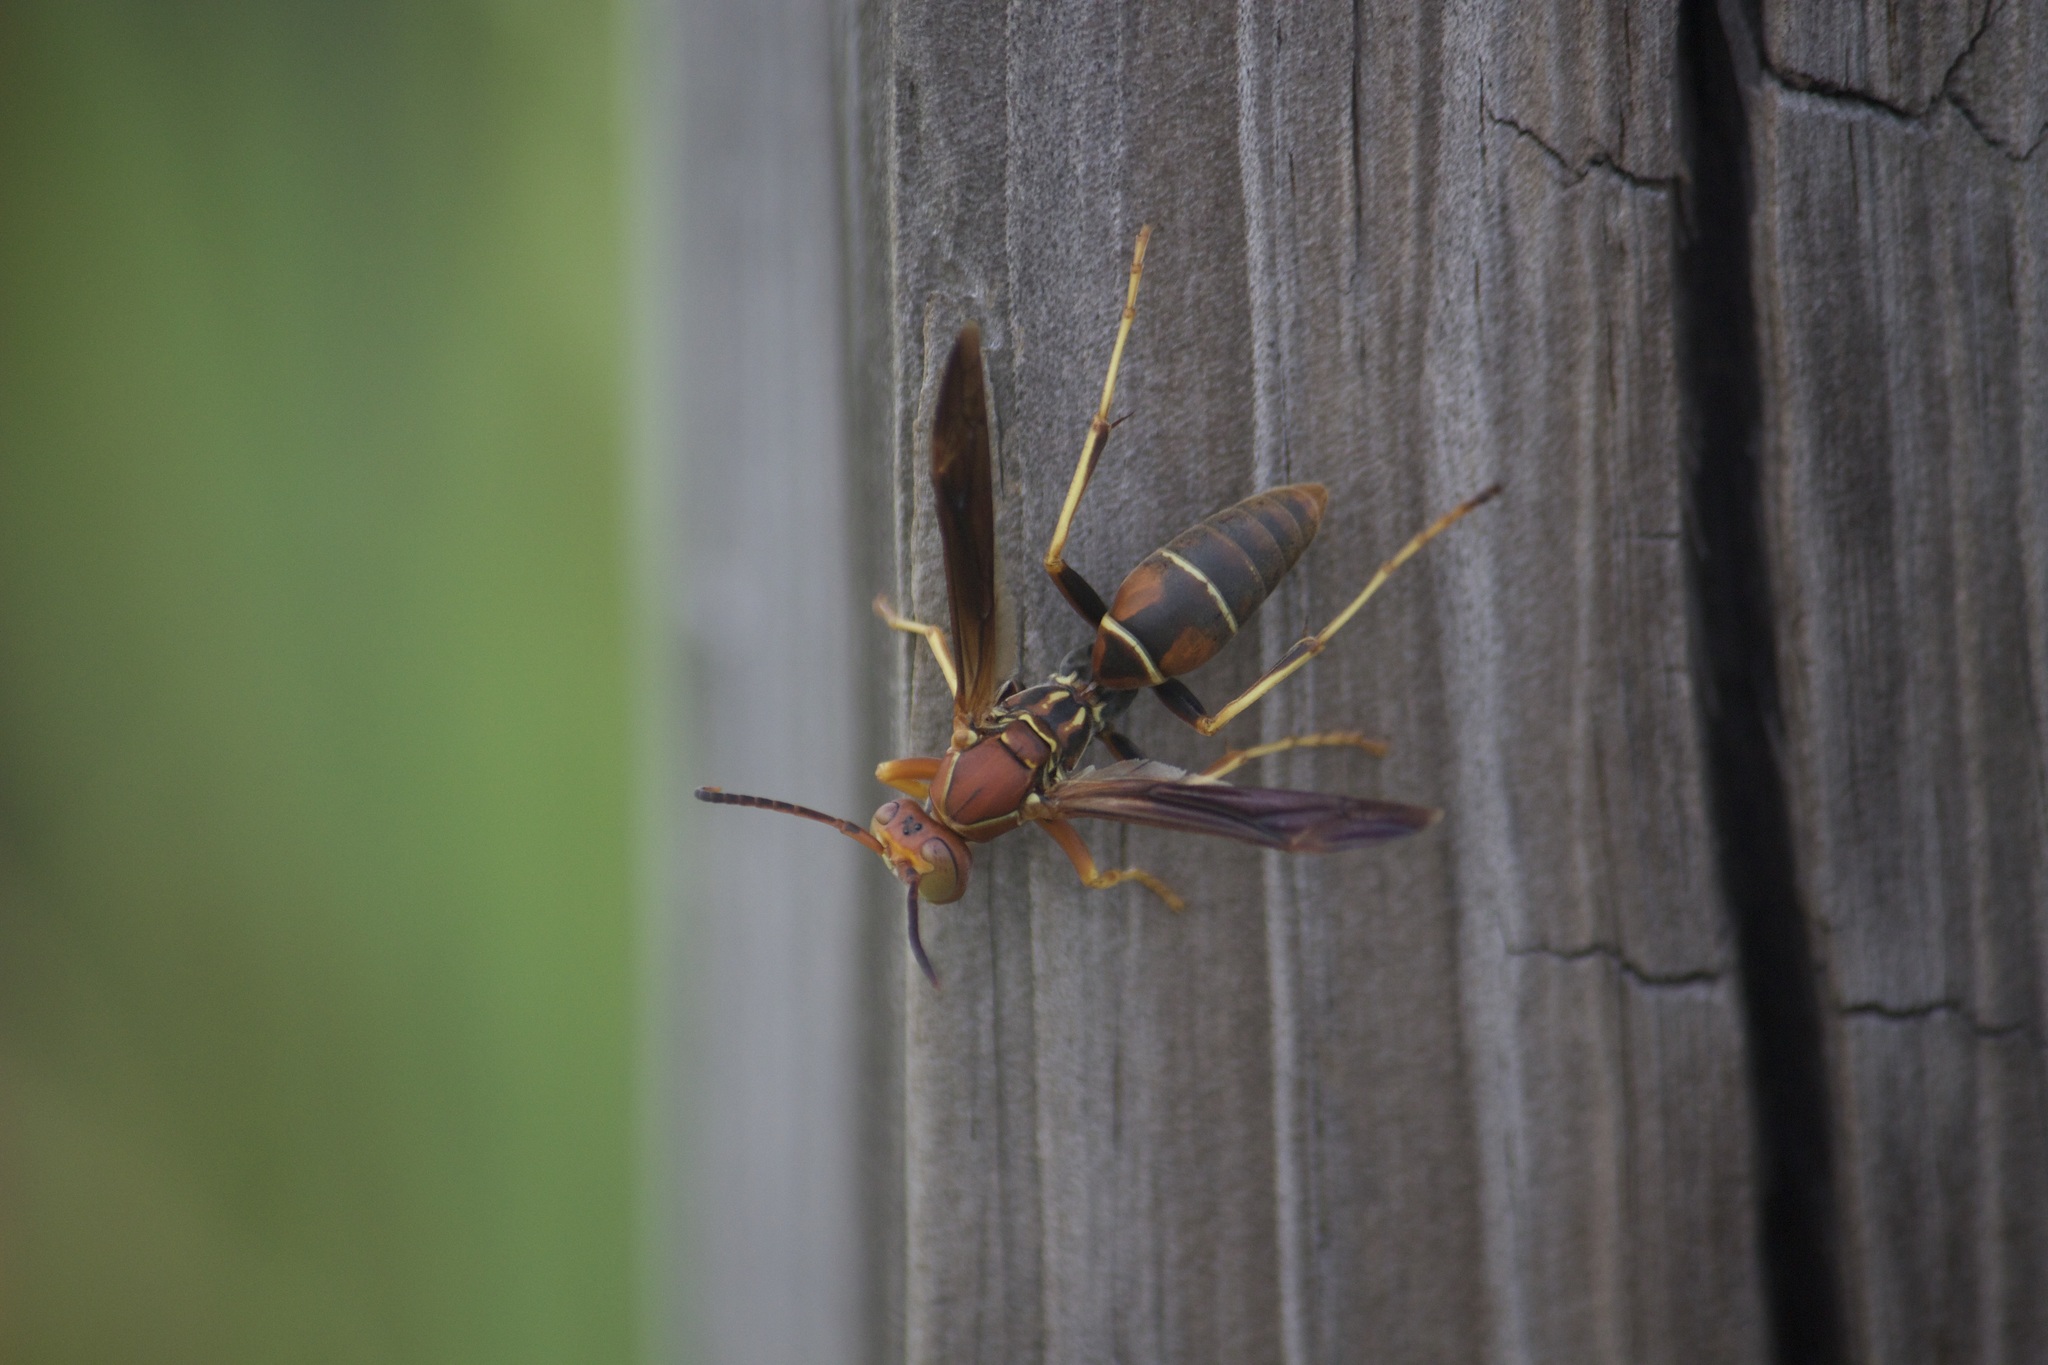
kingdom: Animalia
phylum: Arthropoda
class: Insecta
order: Hymenoptera
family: Eumenidae
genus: Polistes
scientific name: Polistes dorsalis
